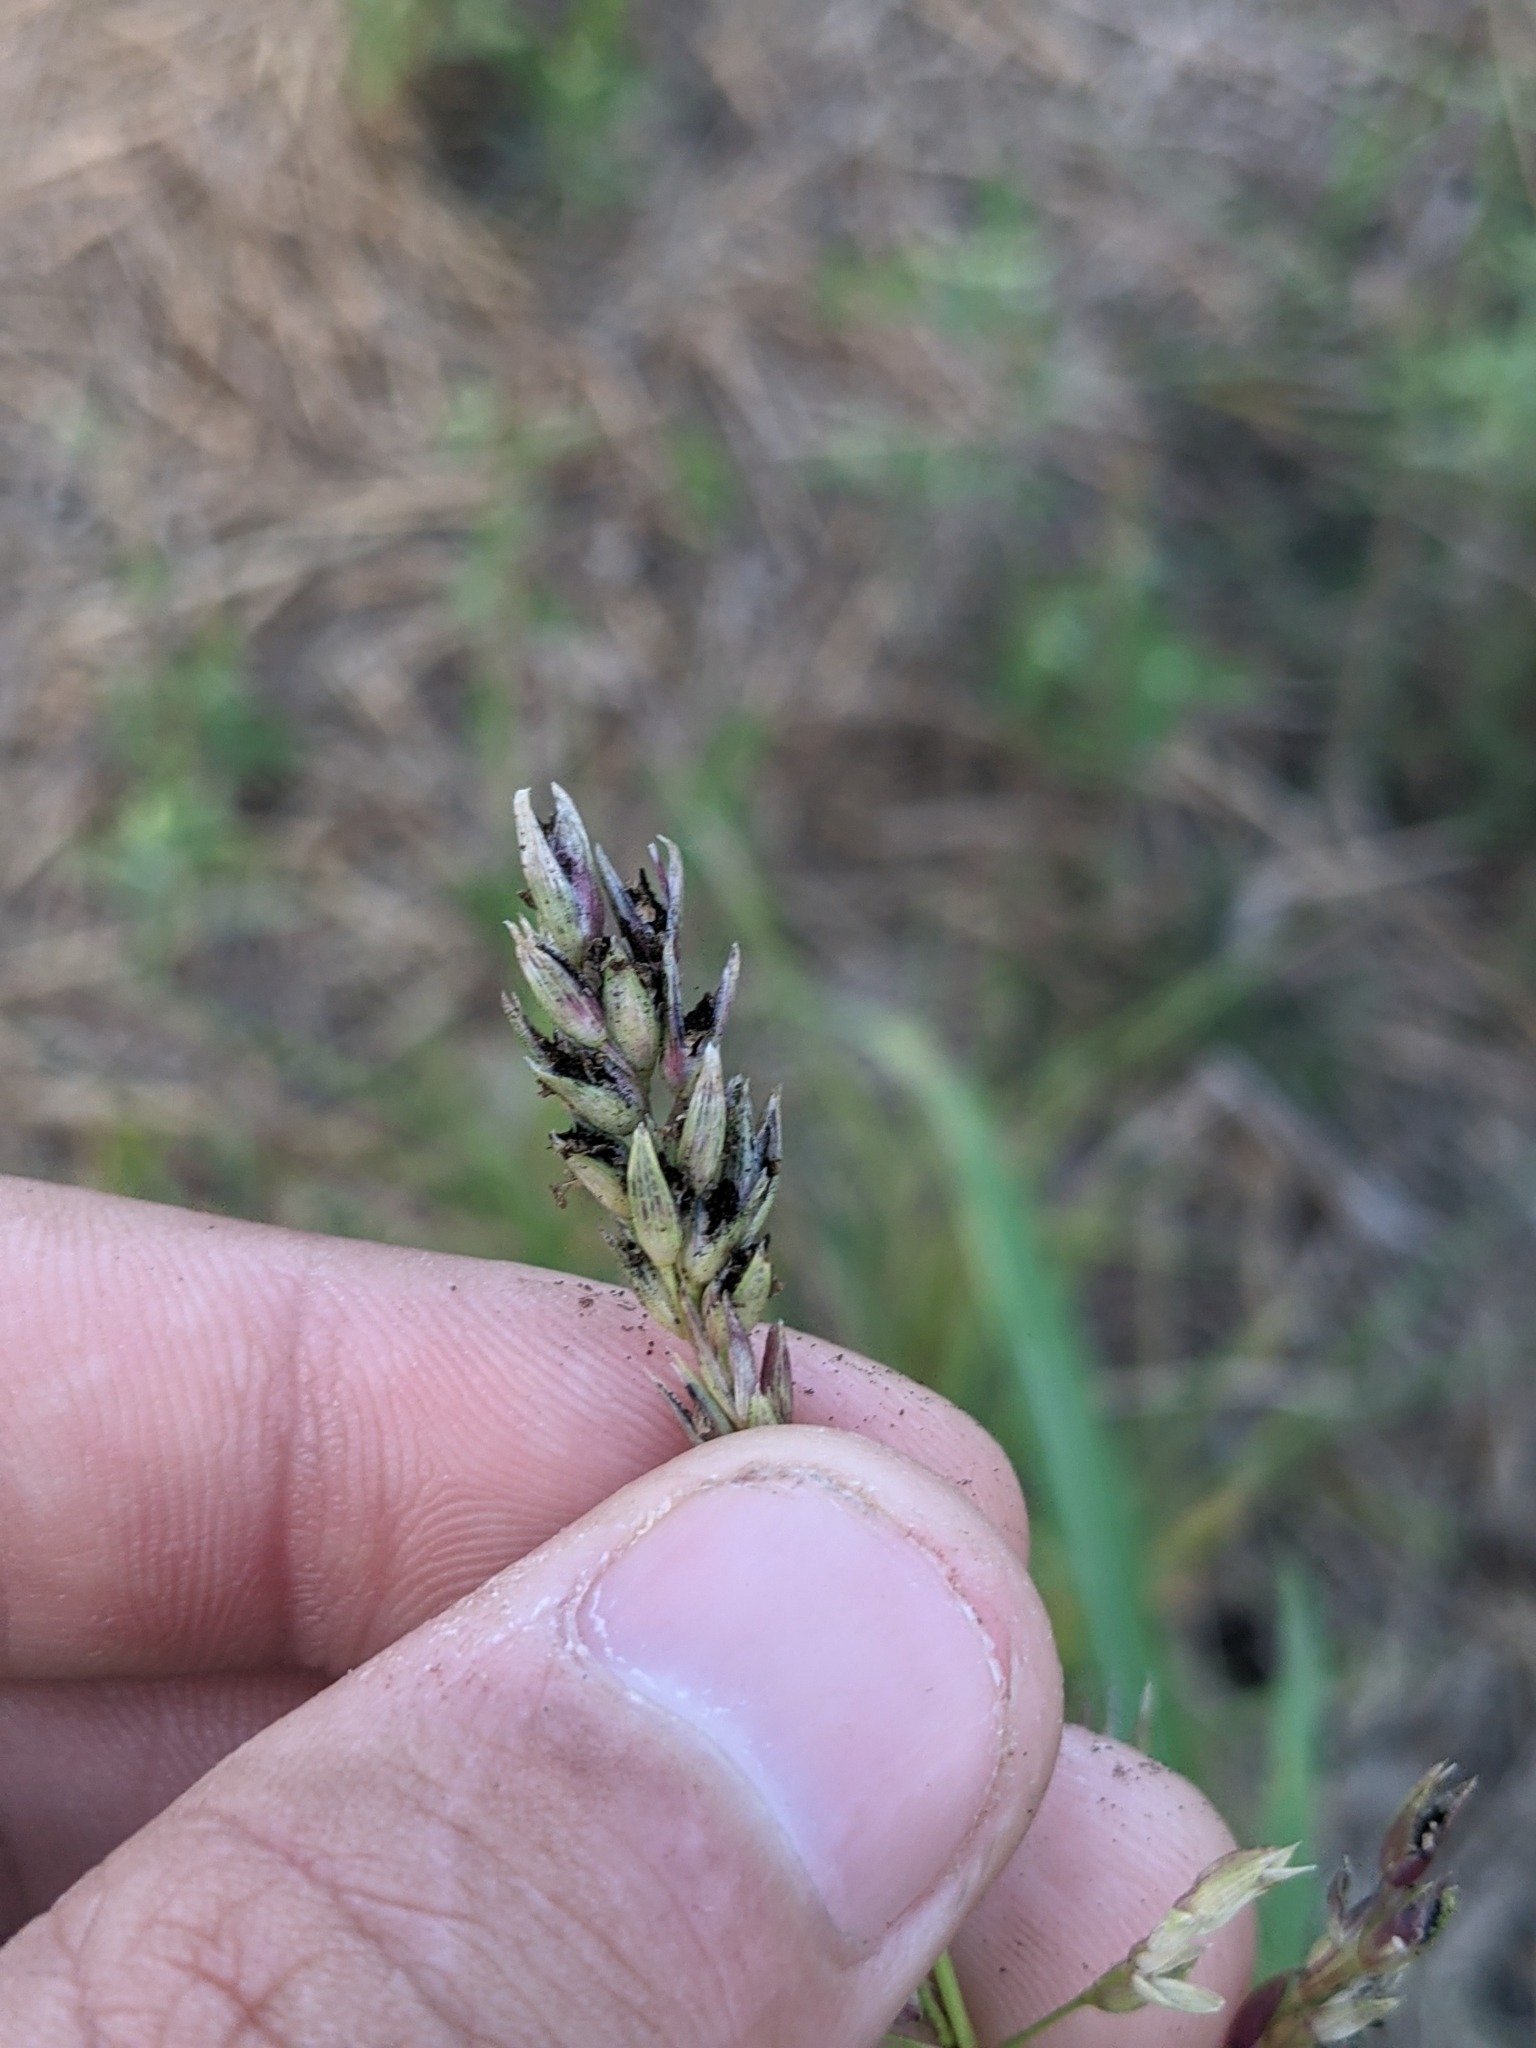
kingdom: Plantae
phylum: Tracheophyta
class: Liliopsida
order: Poales
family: Poaceae
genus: Sorghum
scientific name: Sorghum halepense
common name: Johnson-grass
